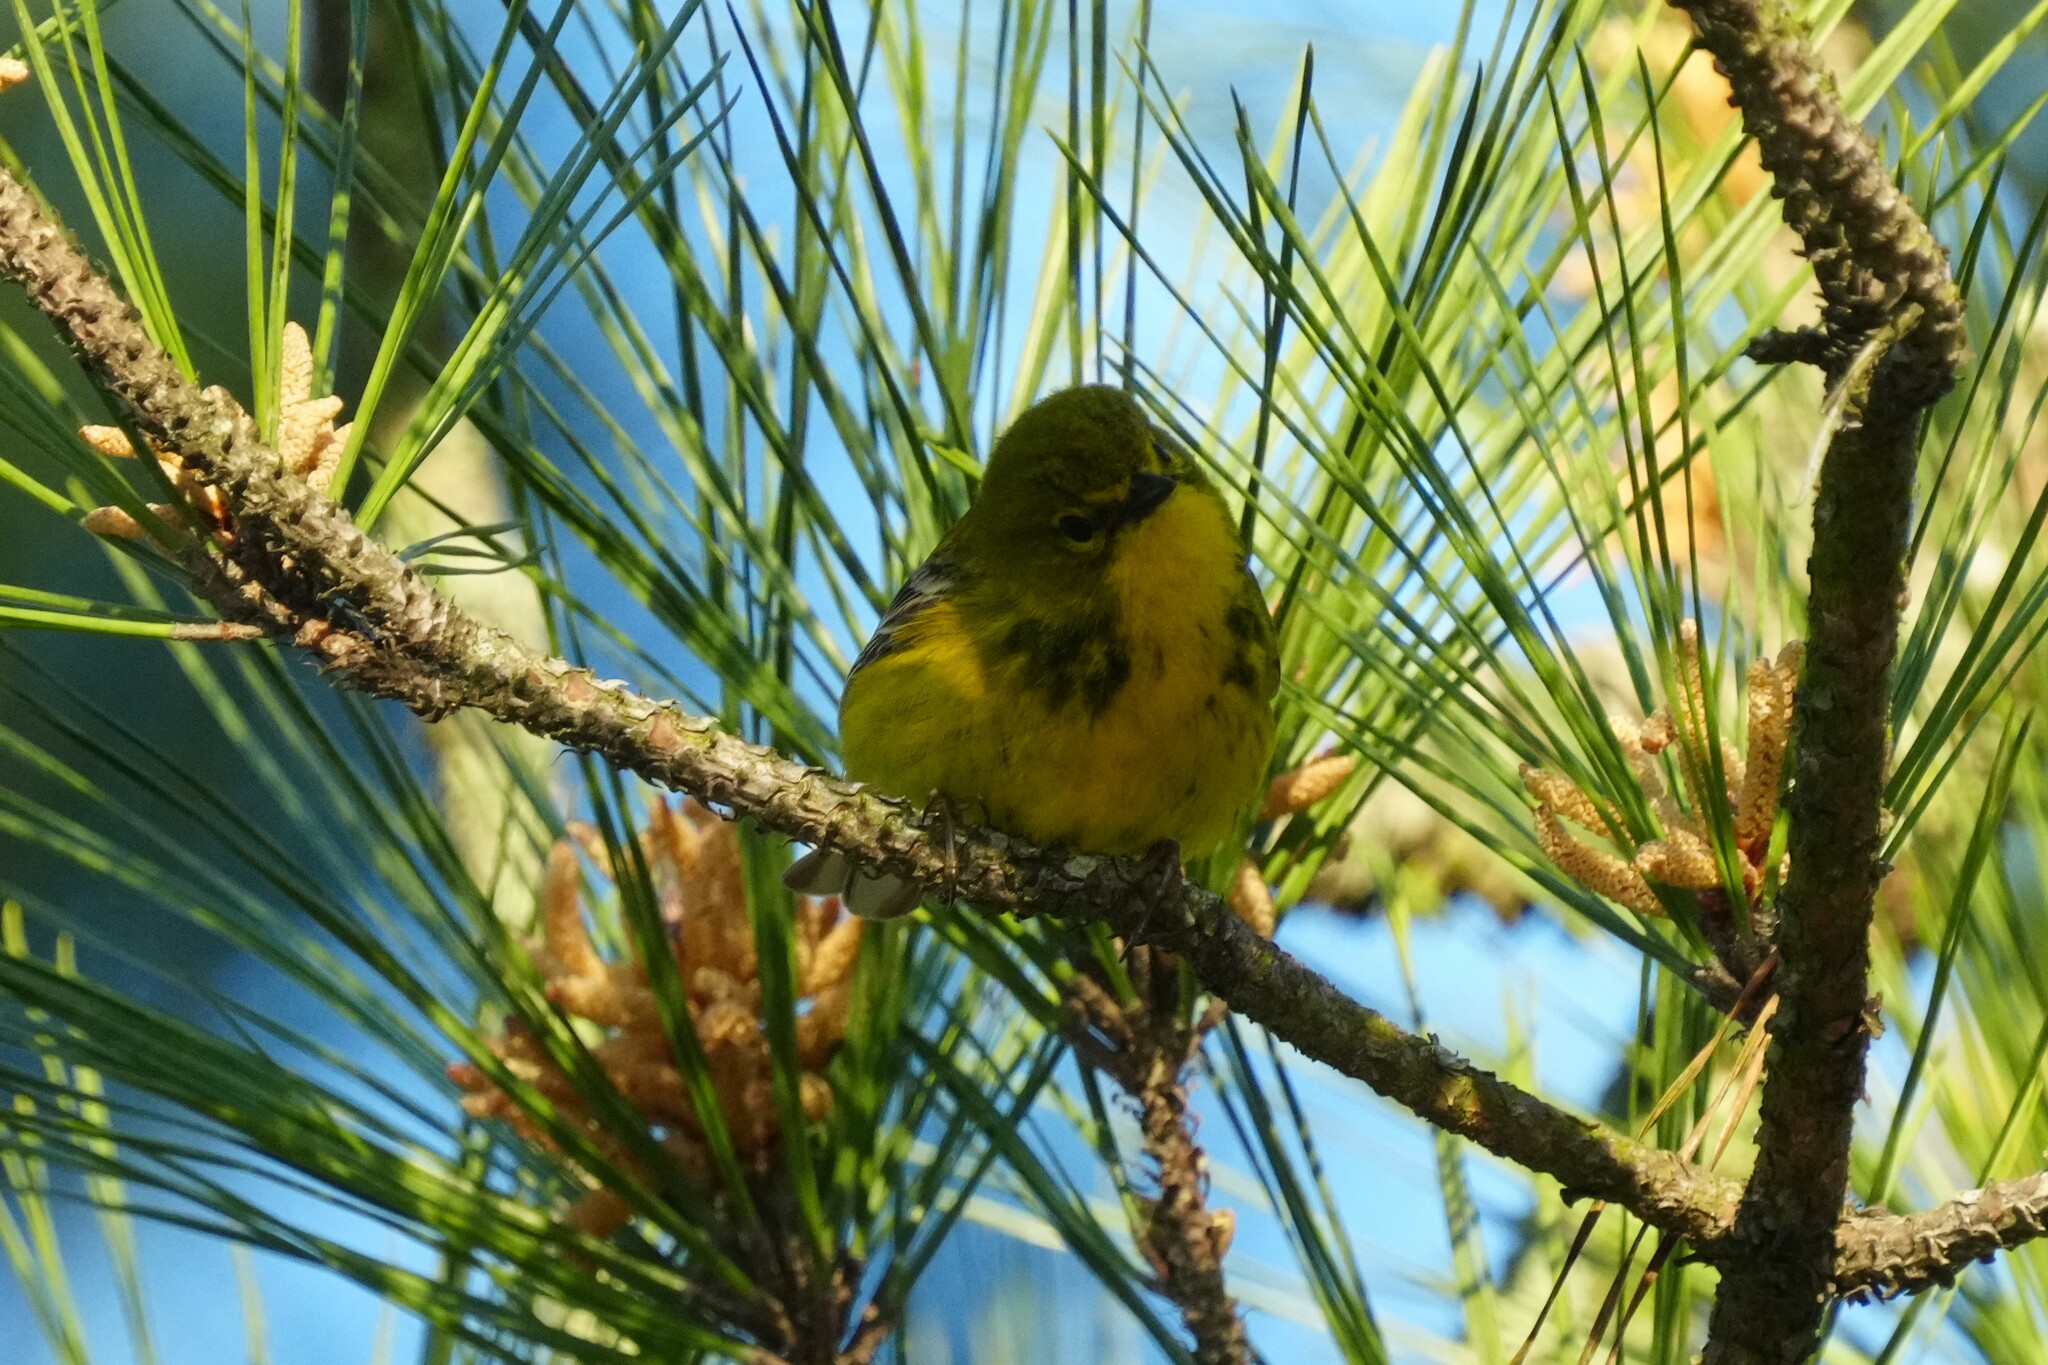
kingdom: Animalia
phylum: Chordata
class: Aves
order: Passeriformes
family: Parulidae
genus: Setophaga
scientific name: Setophaga pinus
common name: Pine warbler
